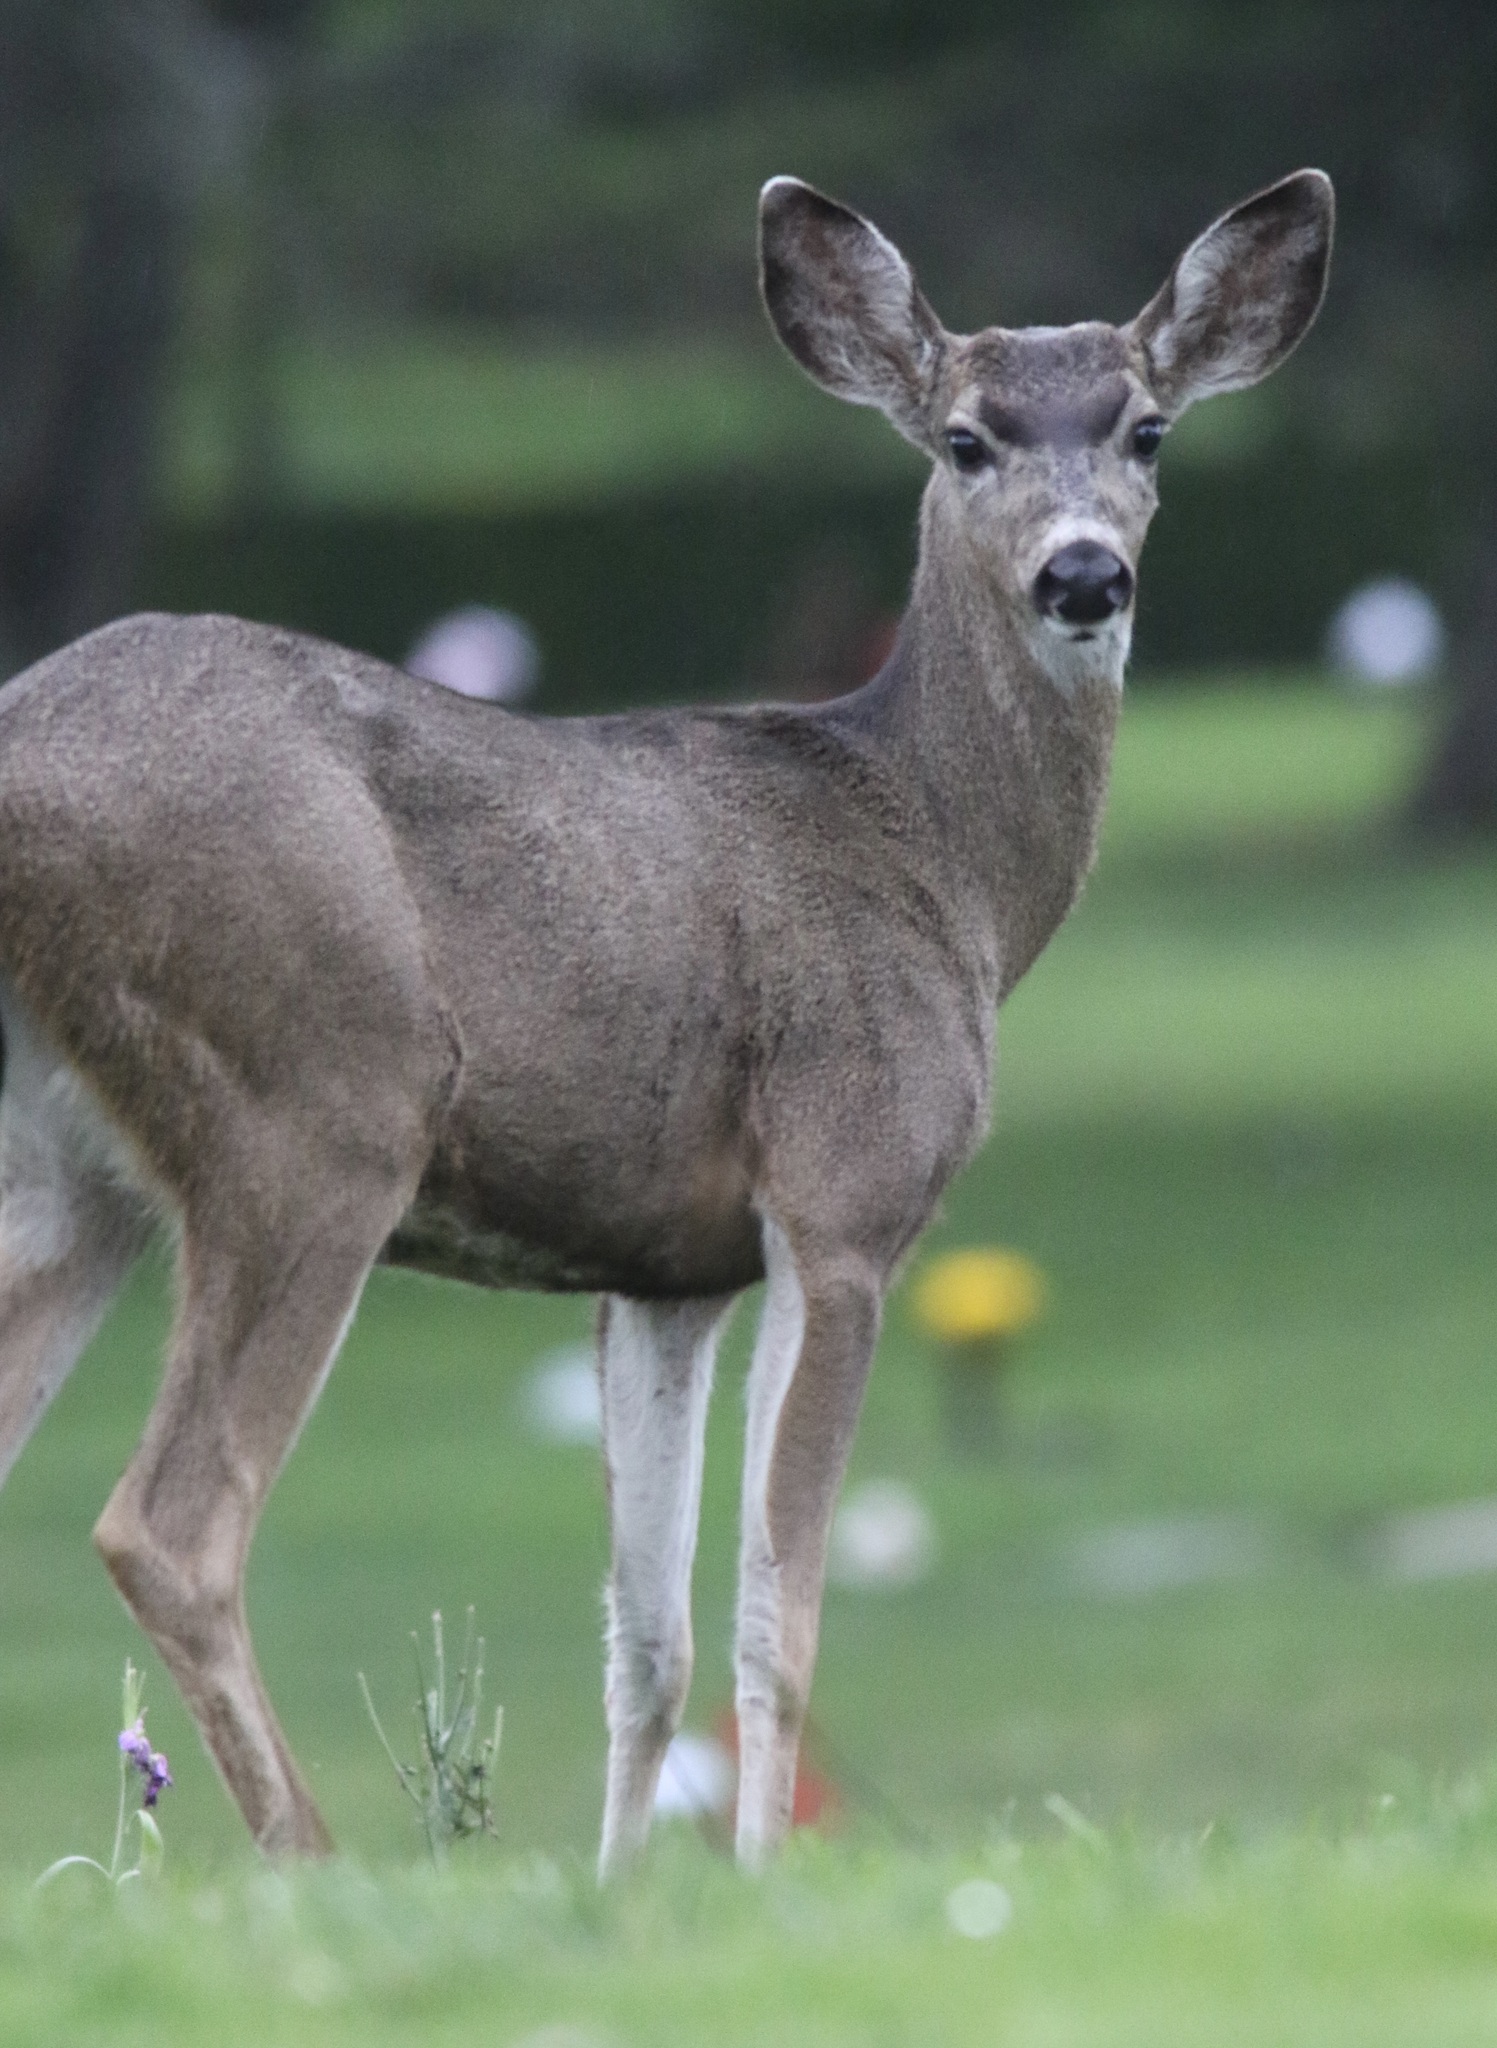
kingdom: Animalia
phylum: Chordata
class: Mammalia
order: Artiodactyla
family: Cervidae
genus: Odocoileus
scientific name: Odocoileus hemionus
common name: Mule deer
